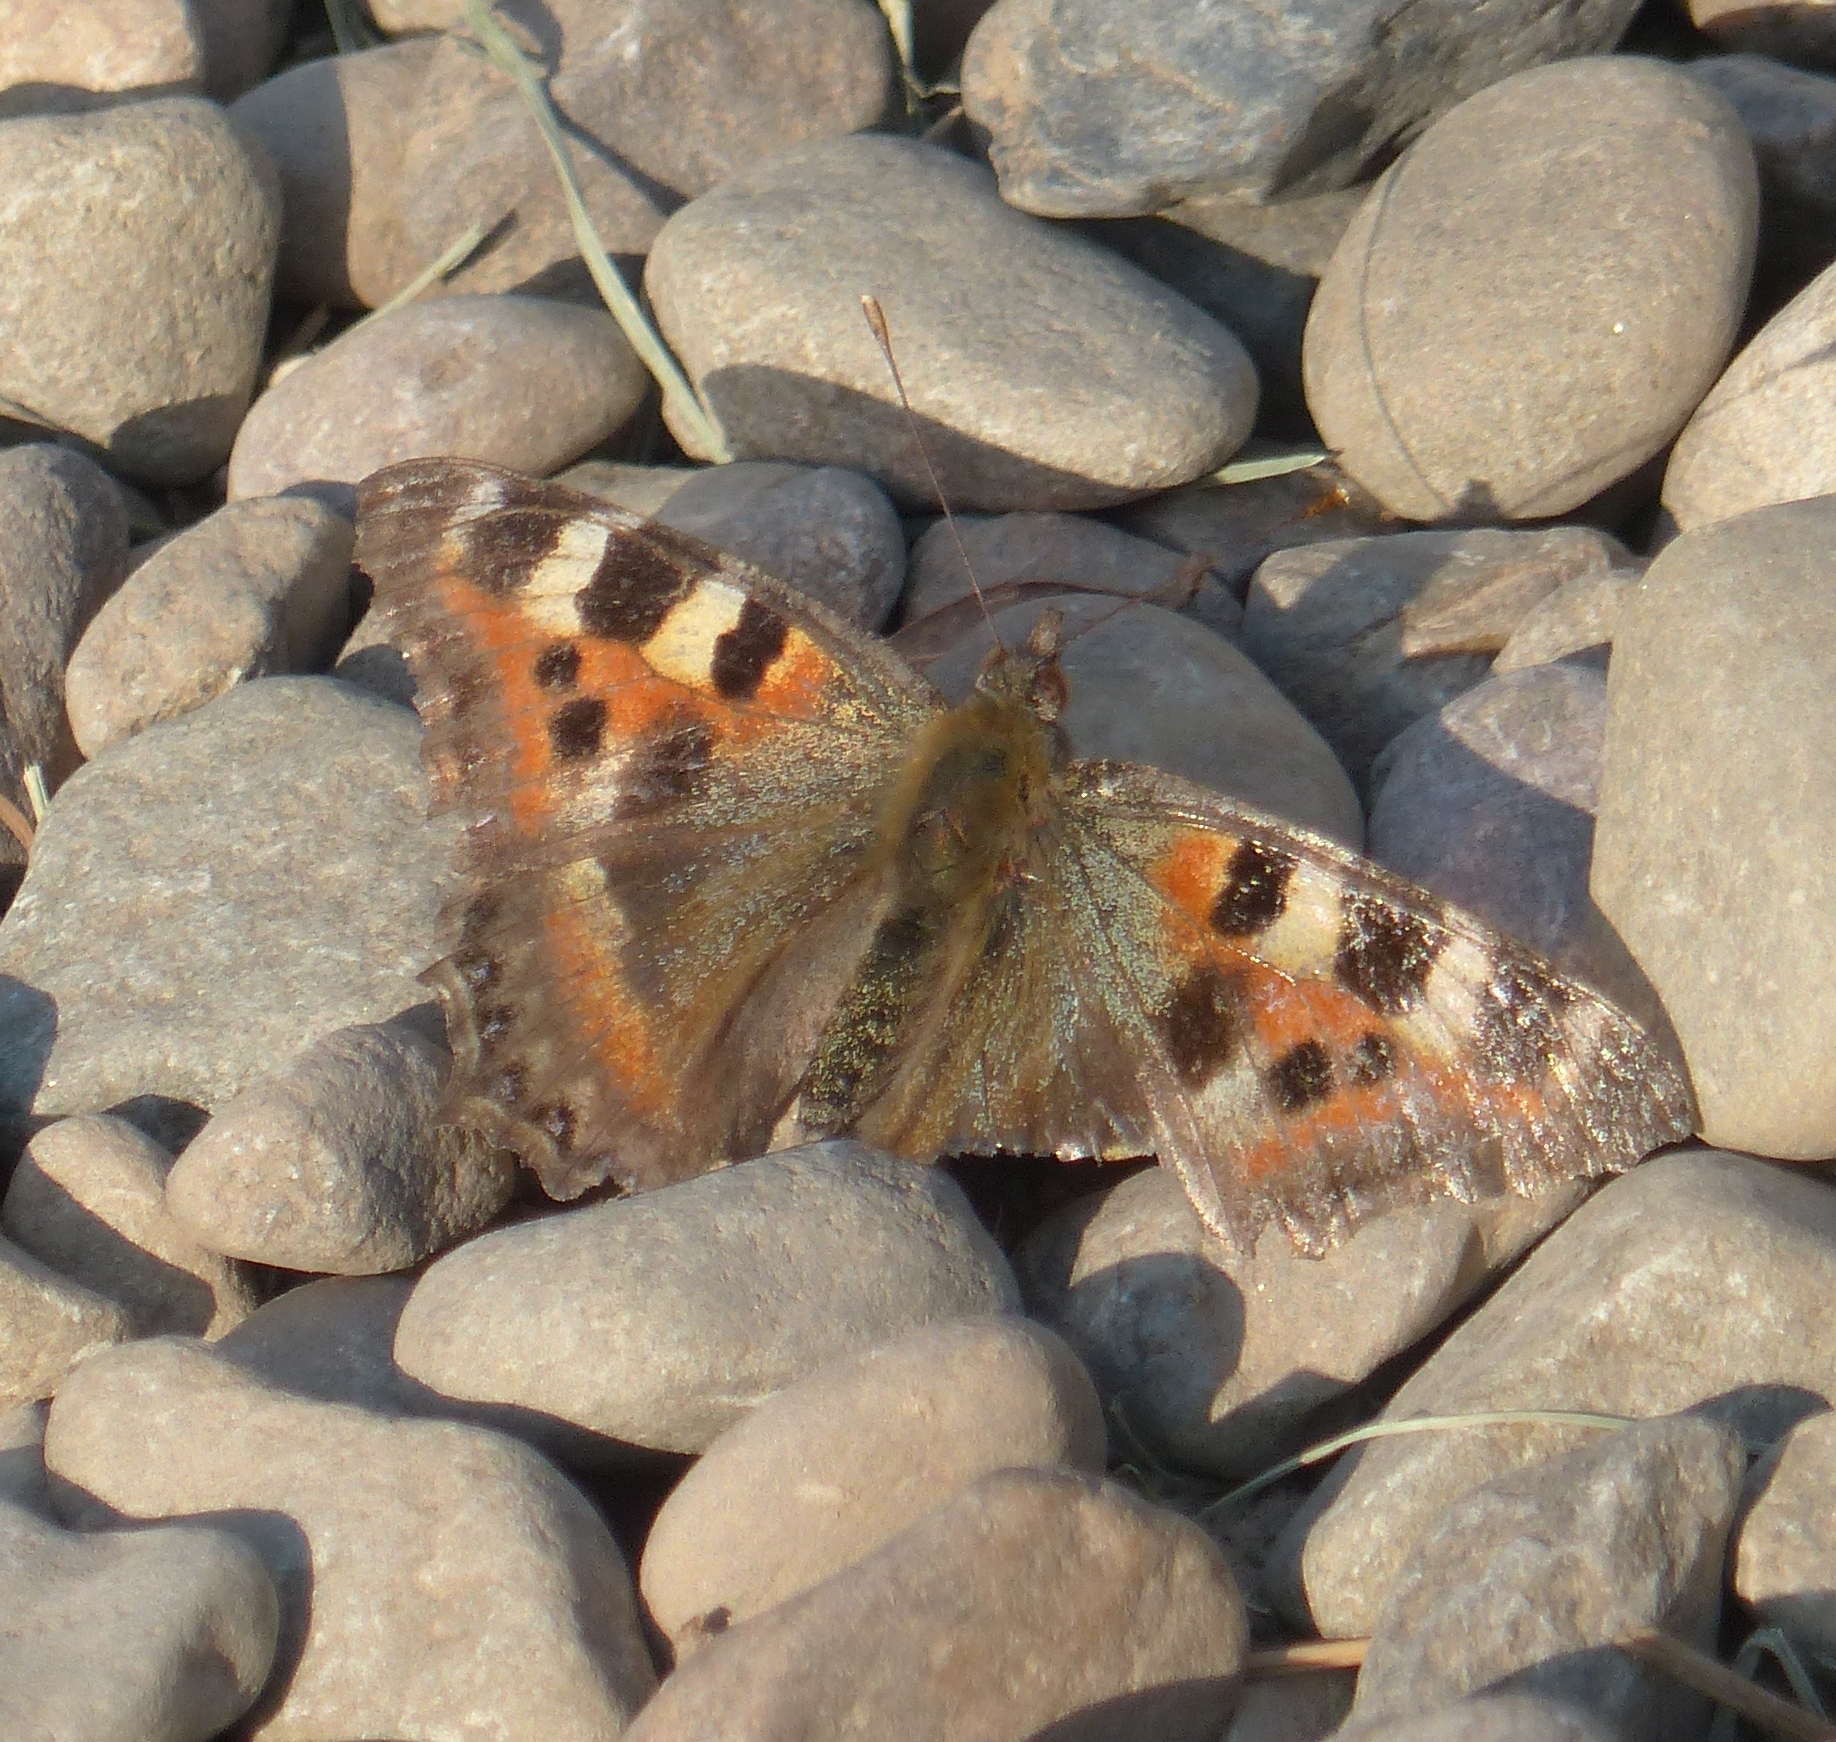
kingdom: Animalia
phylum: Arthropoda
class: Insecta
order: Lepidoptera
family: Nymphalidae
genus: Aglais
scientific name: Aglais caschmirensis
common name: Indian tortoiseshell
